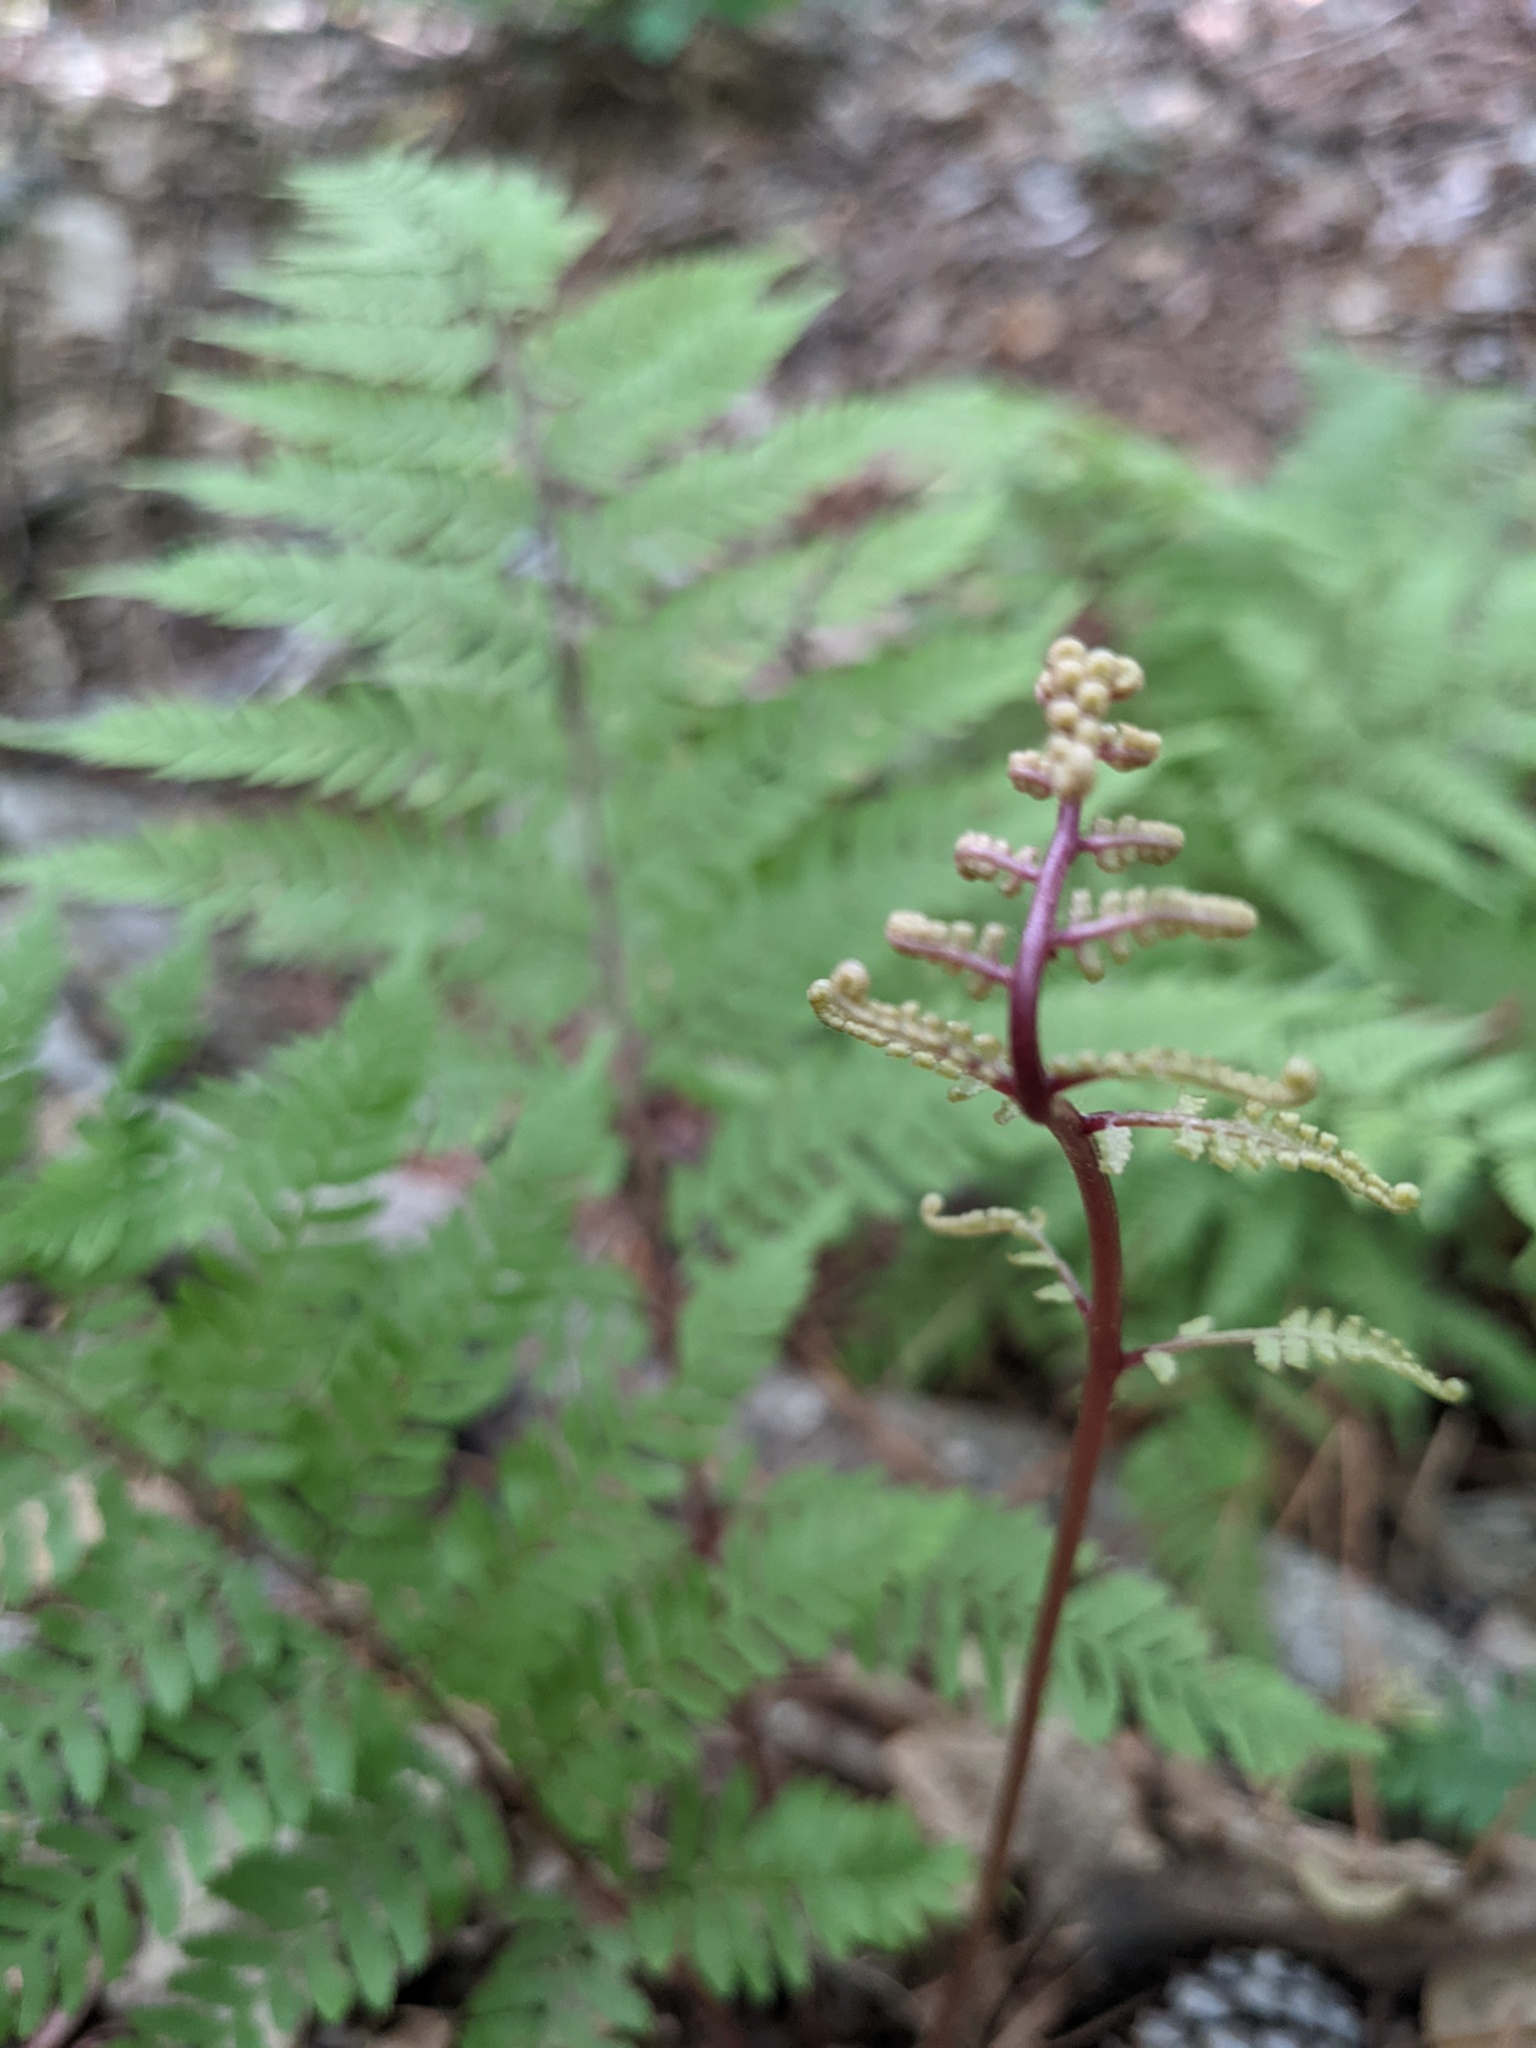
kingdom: Plantae
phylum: Tracheophyta
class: Polypodiopsida
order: Polypodiales
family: Athyriaceae
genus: Athyrium
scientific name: Athyrium asplenioides
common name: Southern lady fern
